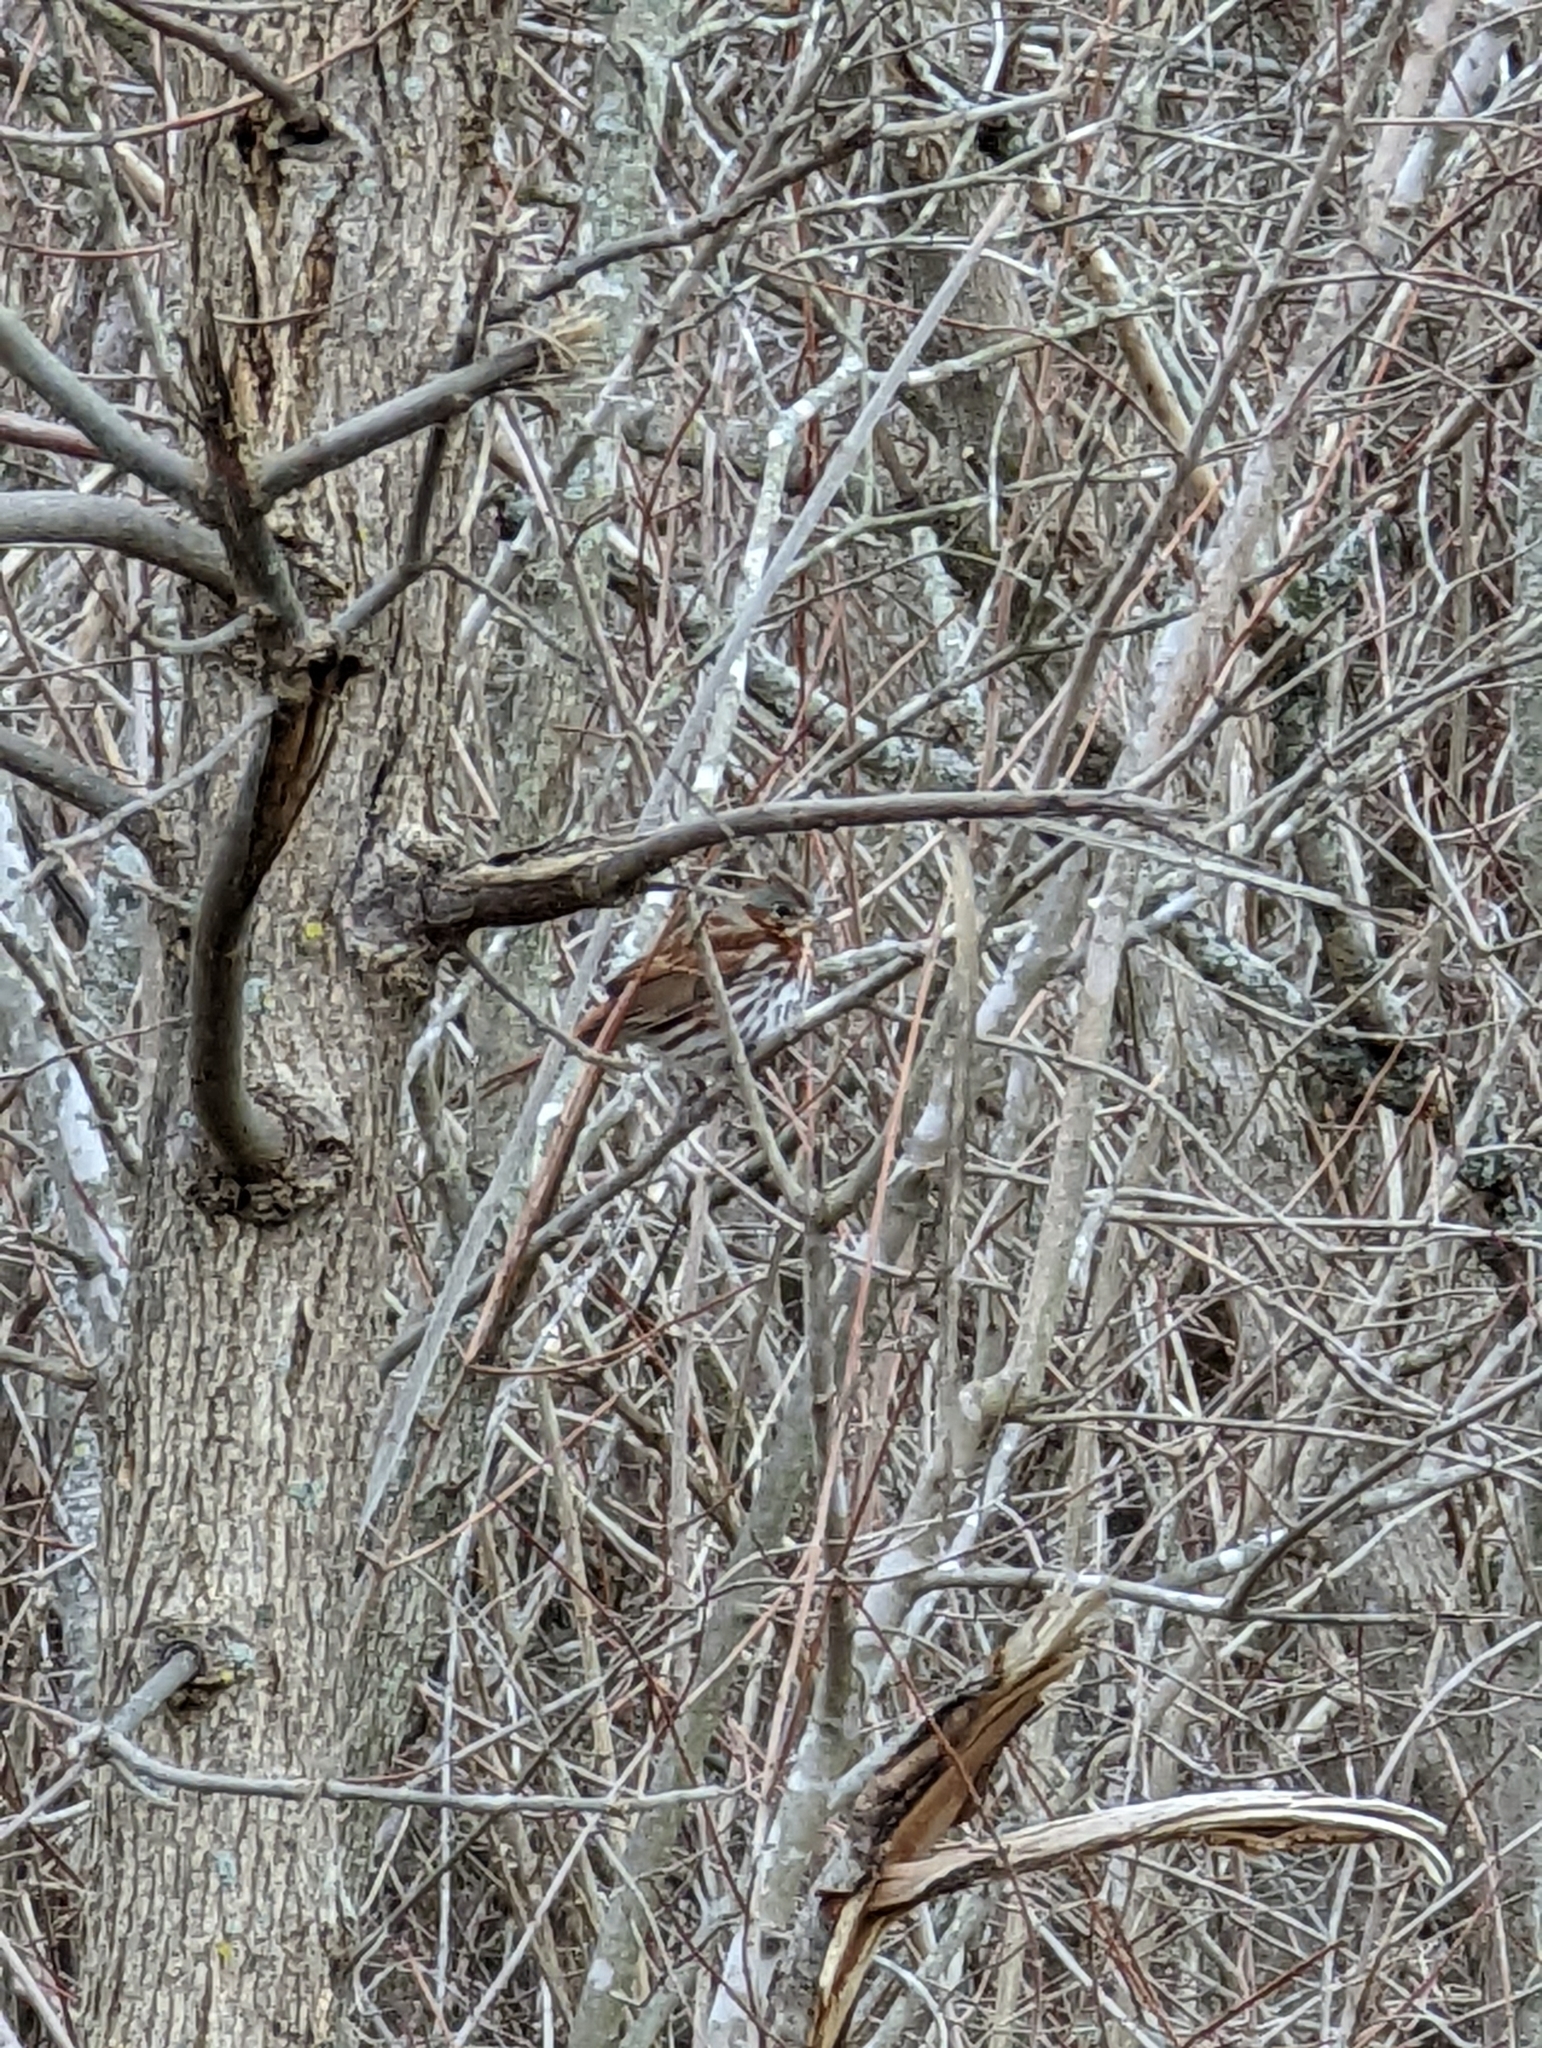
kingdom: Animalia
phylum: Chordata
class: Aves
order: Passeriformes
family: Passerellidae
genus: Passerella
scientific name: Passerella iliaca
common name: Fox sparrow
